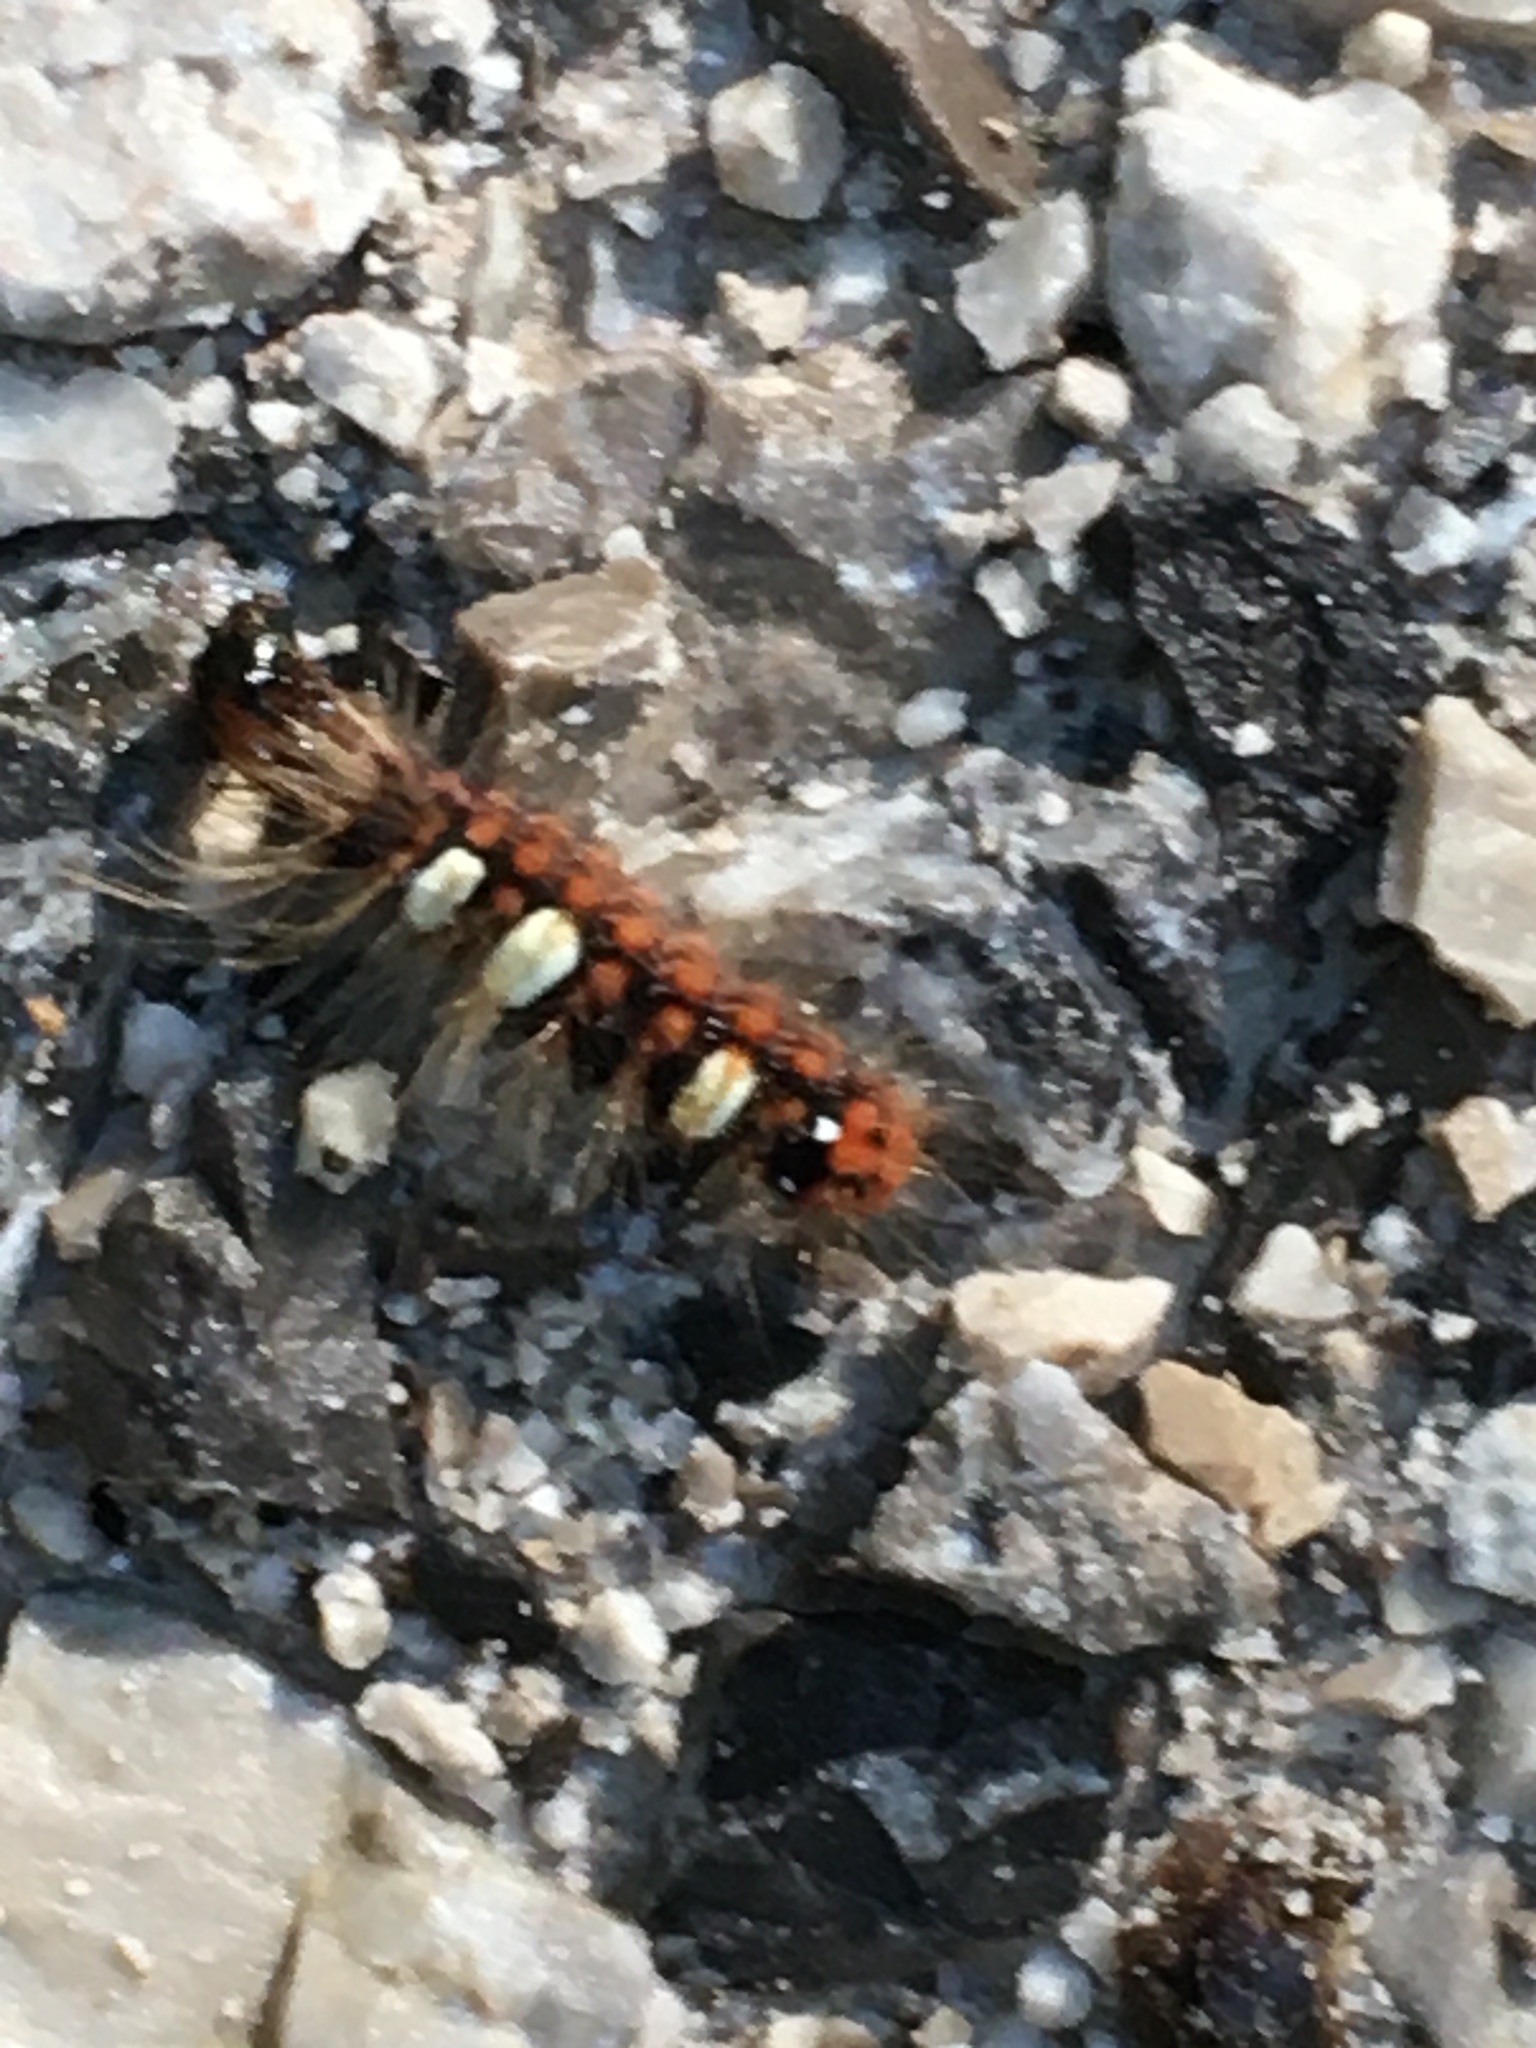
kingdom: Animalia
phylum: Arthropoda
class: Insecta
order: Lepidoptera
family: Noctuidae
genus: Moma
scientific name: Moma alpium
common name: Scarce merveille du jour
